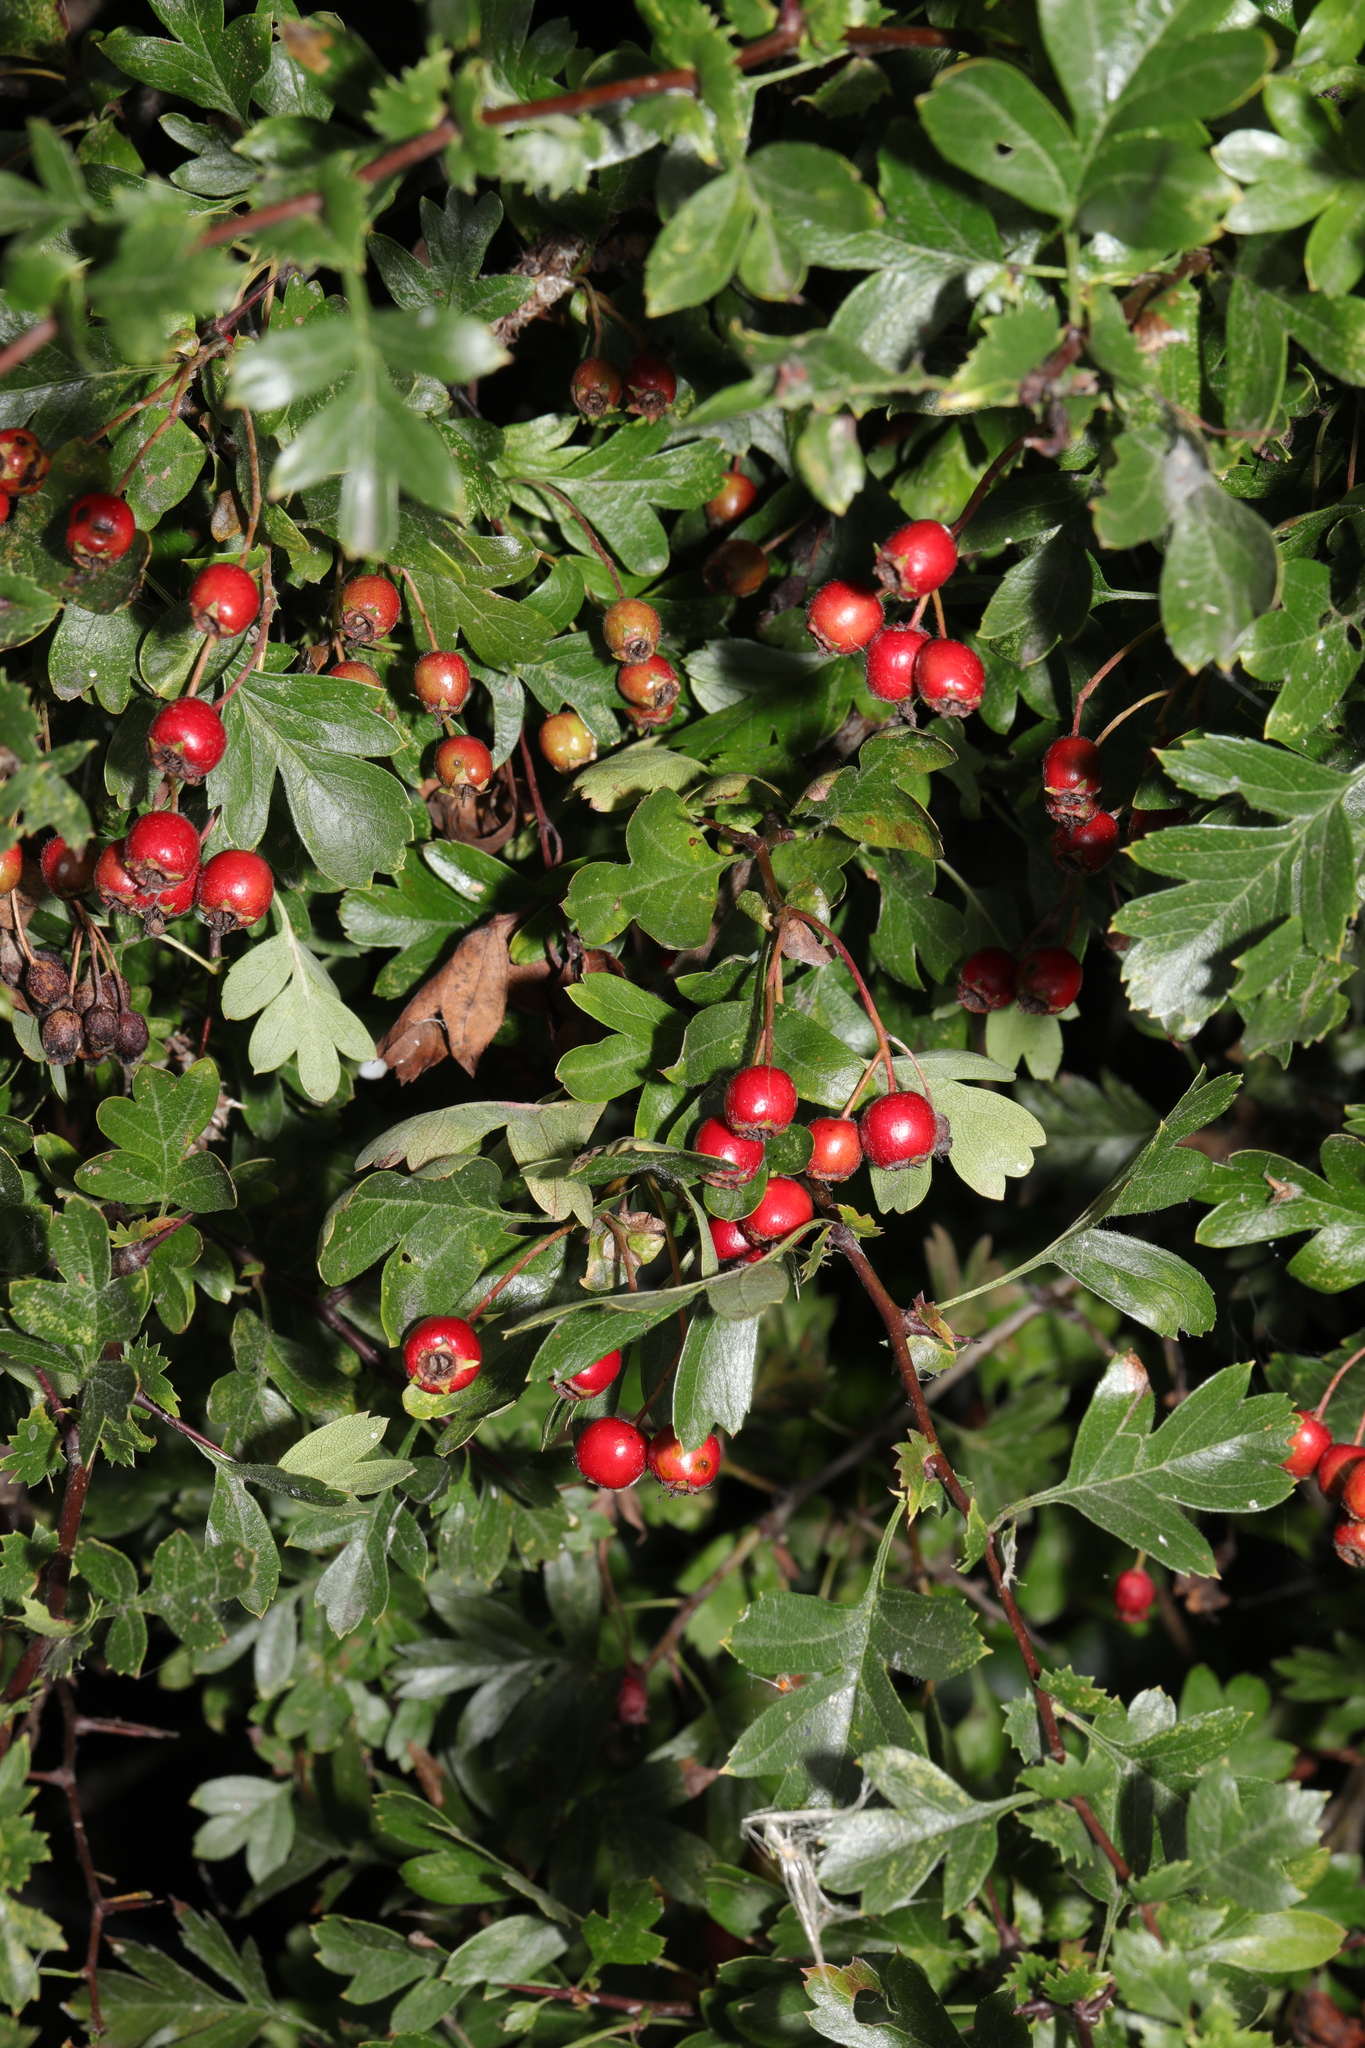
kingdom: Plantae
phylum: Tracheophyta
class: Magnoliopsida
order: Rosales
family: Rosaceae
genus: Crataegus
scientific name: Crataegus monogyna
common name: Hawthorn
